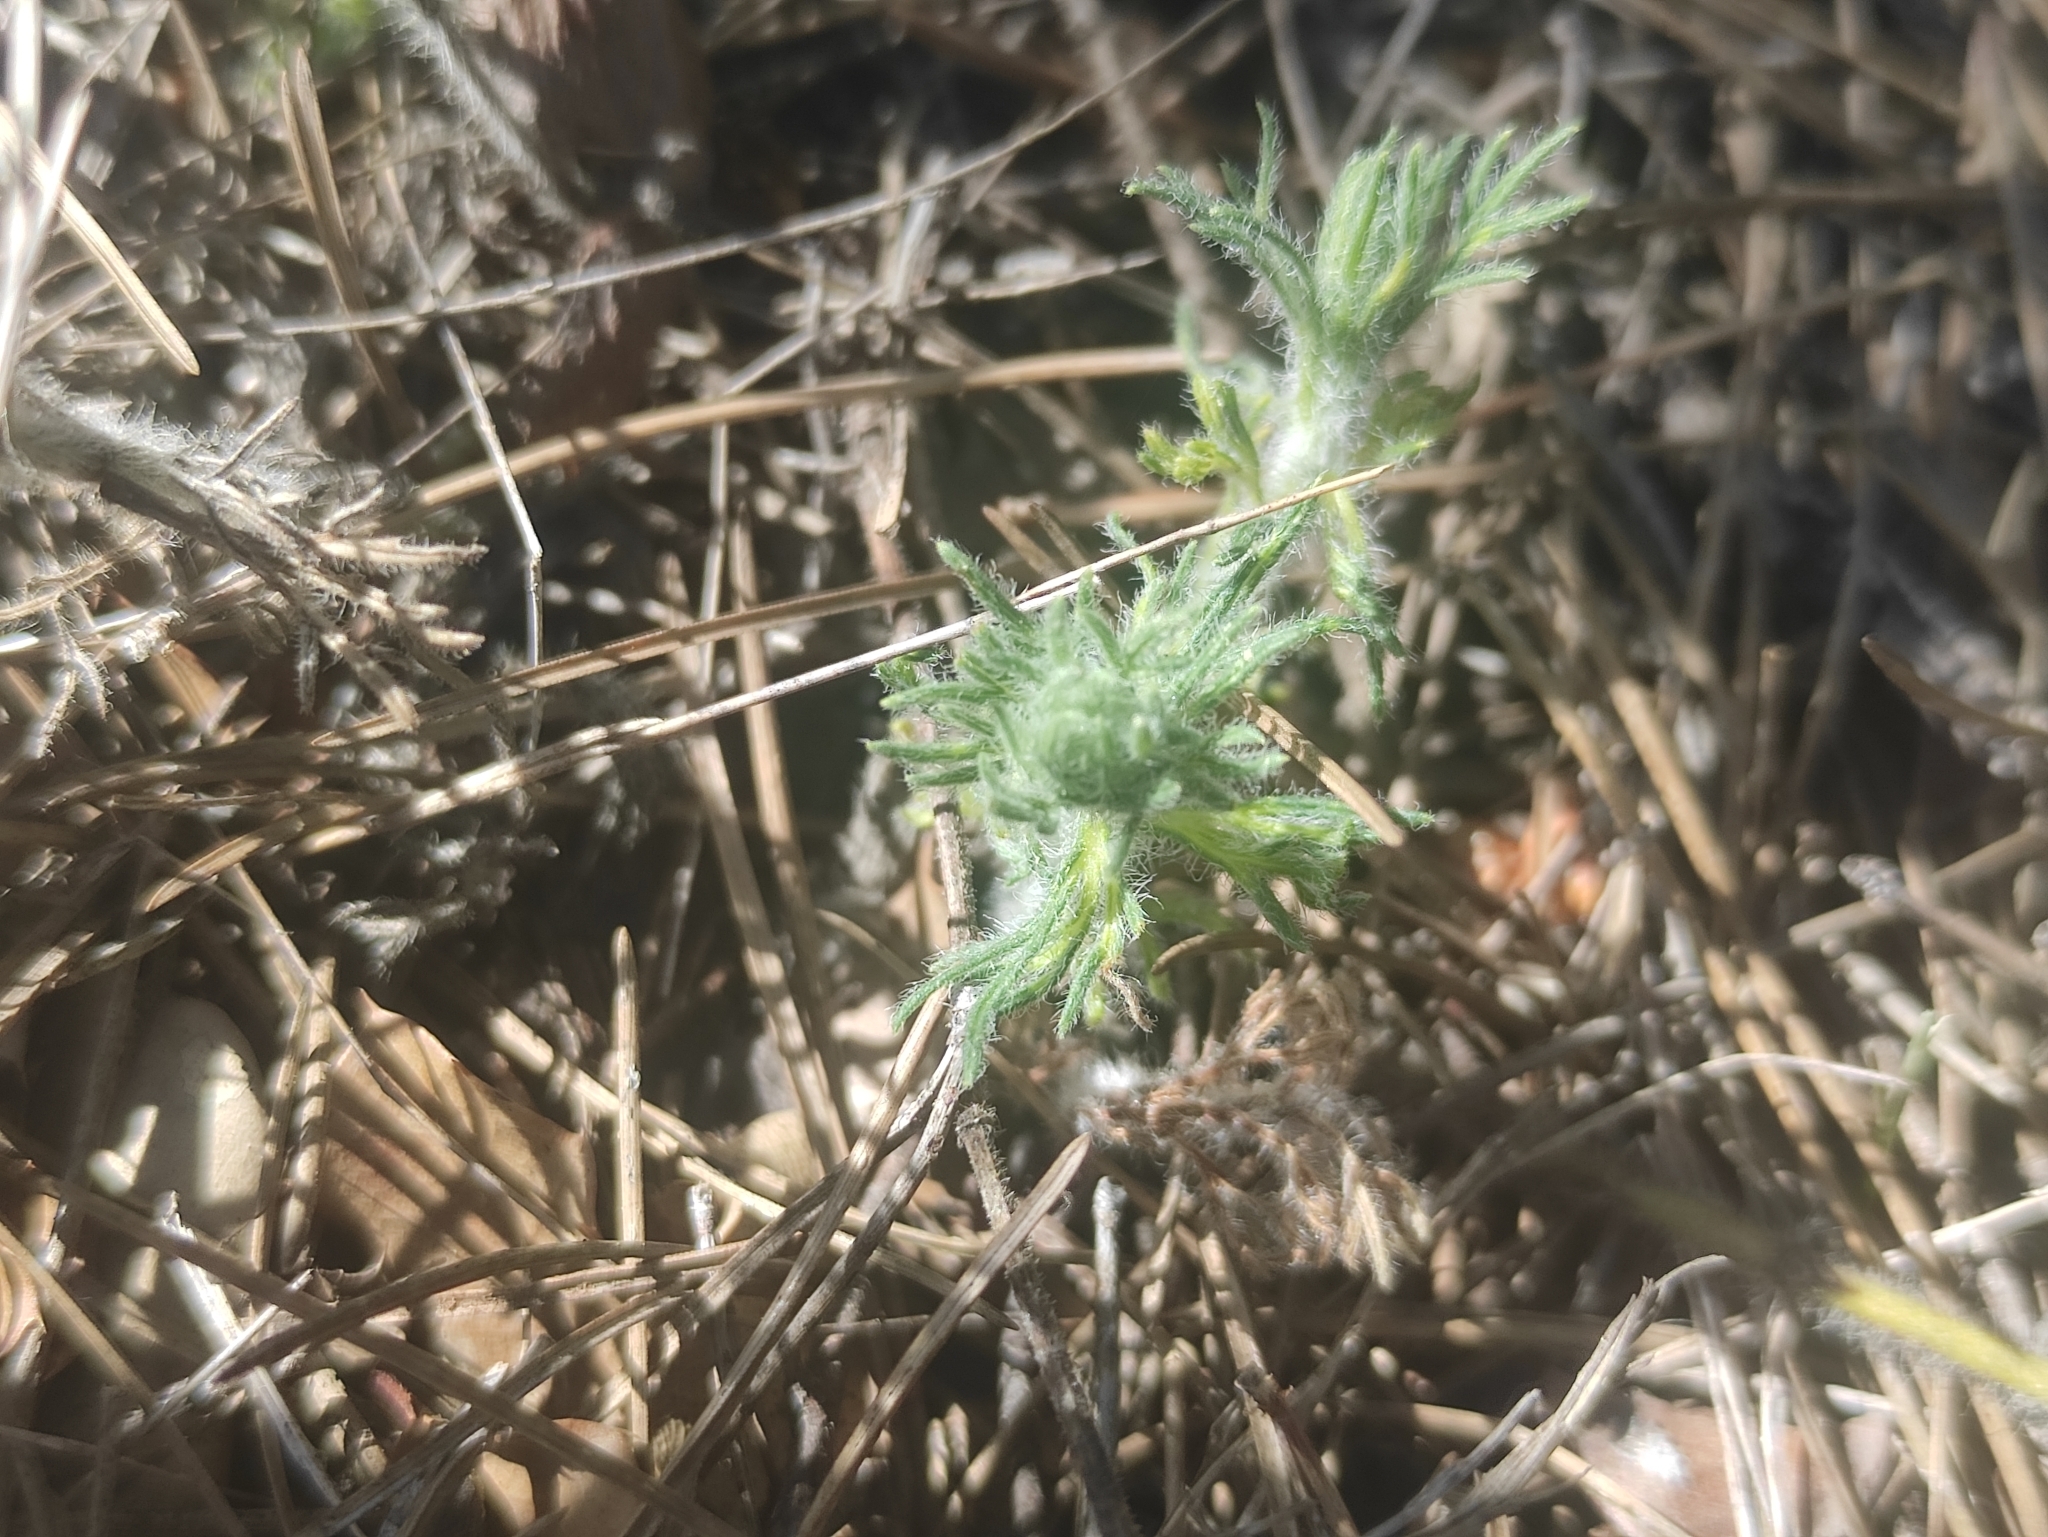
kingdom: Plantae
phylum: Tracheophyta
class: Magnoliopsida
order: Lamiales
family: Lamiaceae
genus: Teucrium
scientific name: Teucrium pseudochamaepitys
